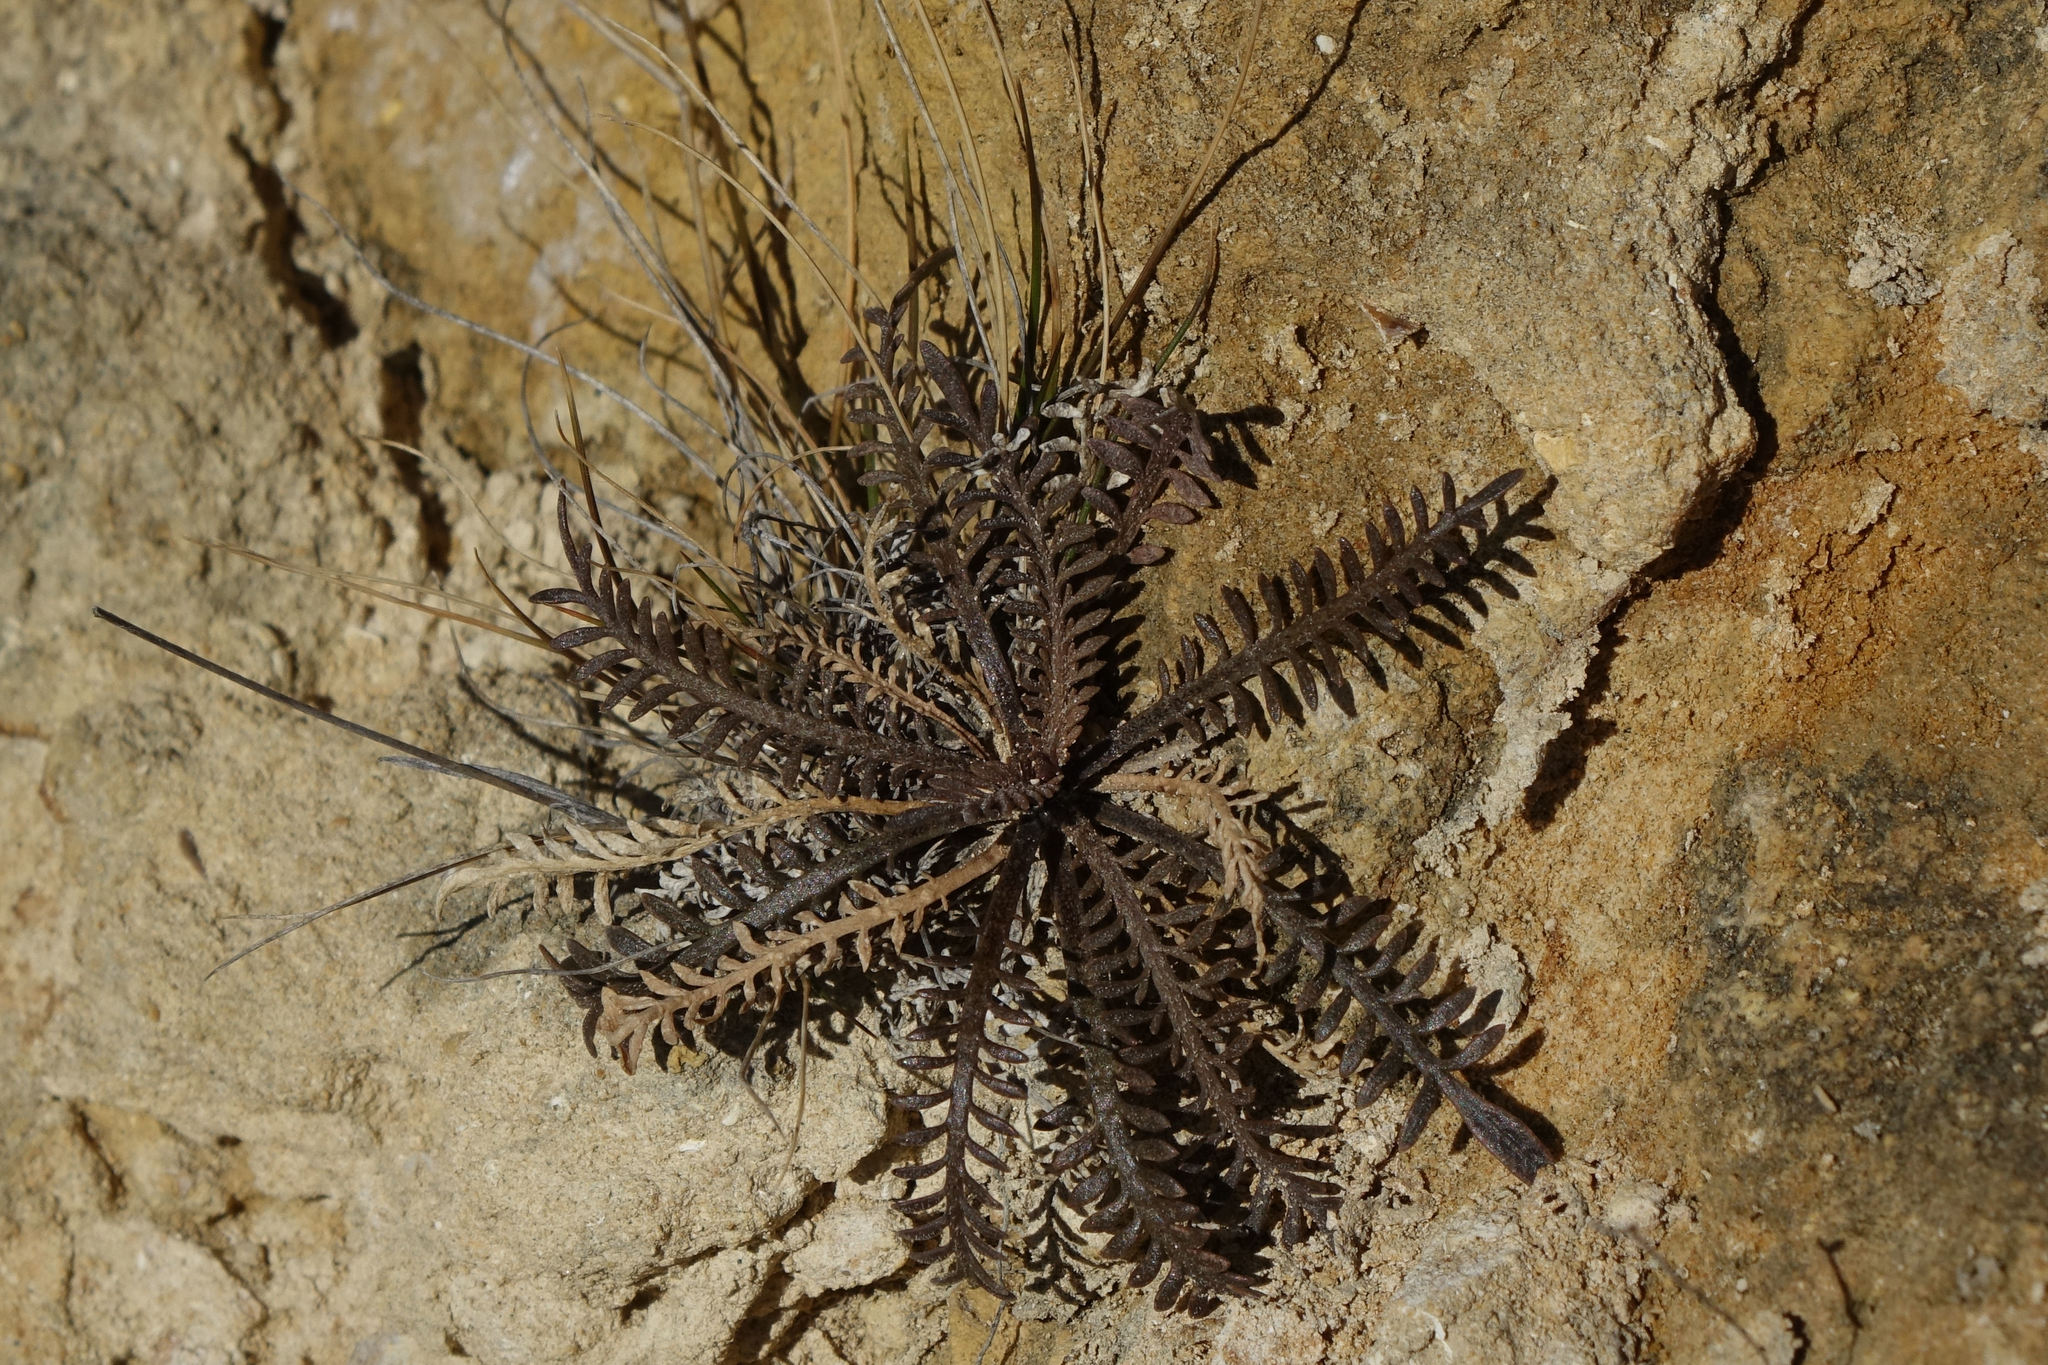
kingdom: Plantae
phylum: Tracheophyta
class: Magnoliopsida
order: Brassicales
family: Brassicaceae
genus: Lepidium
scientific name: Lepidium sisymbrioides
